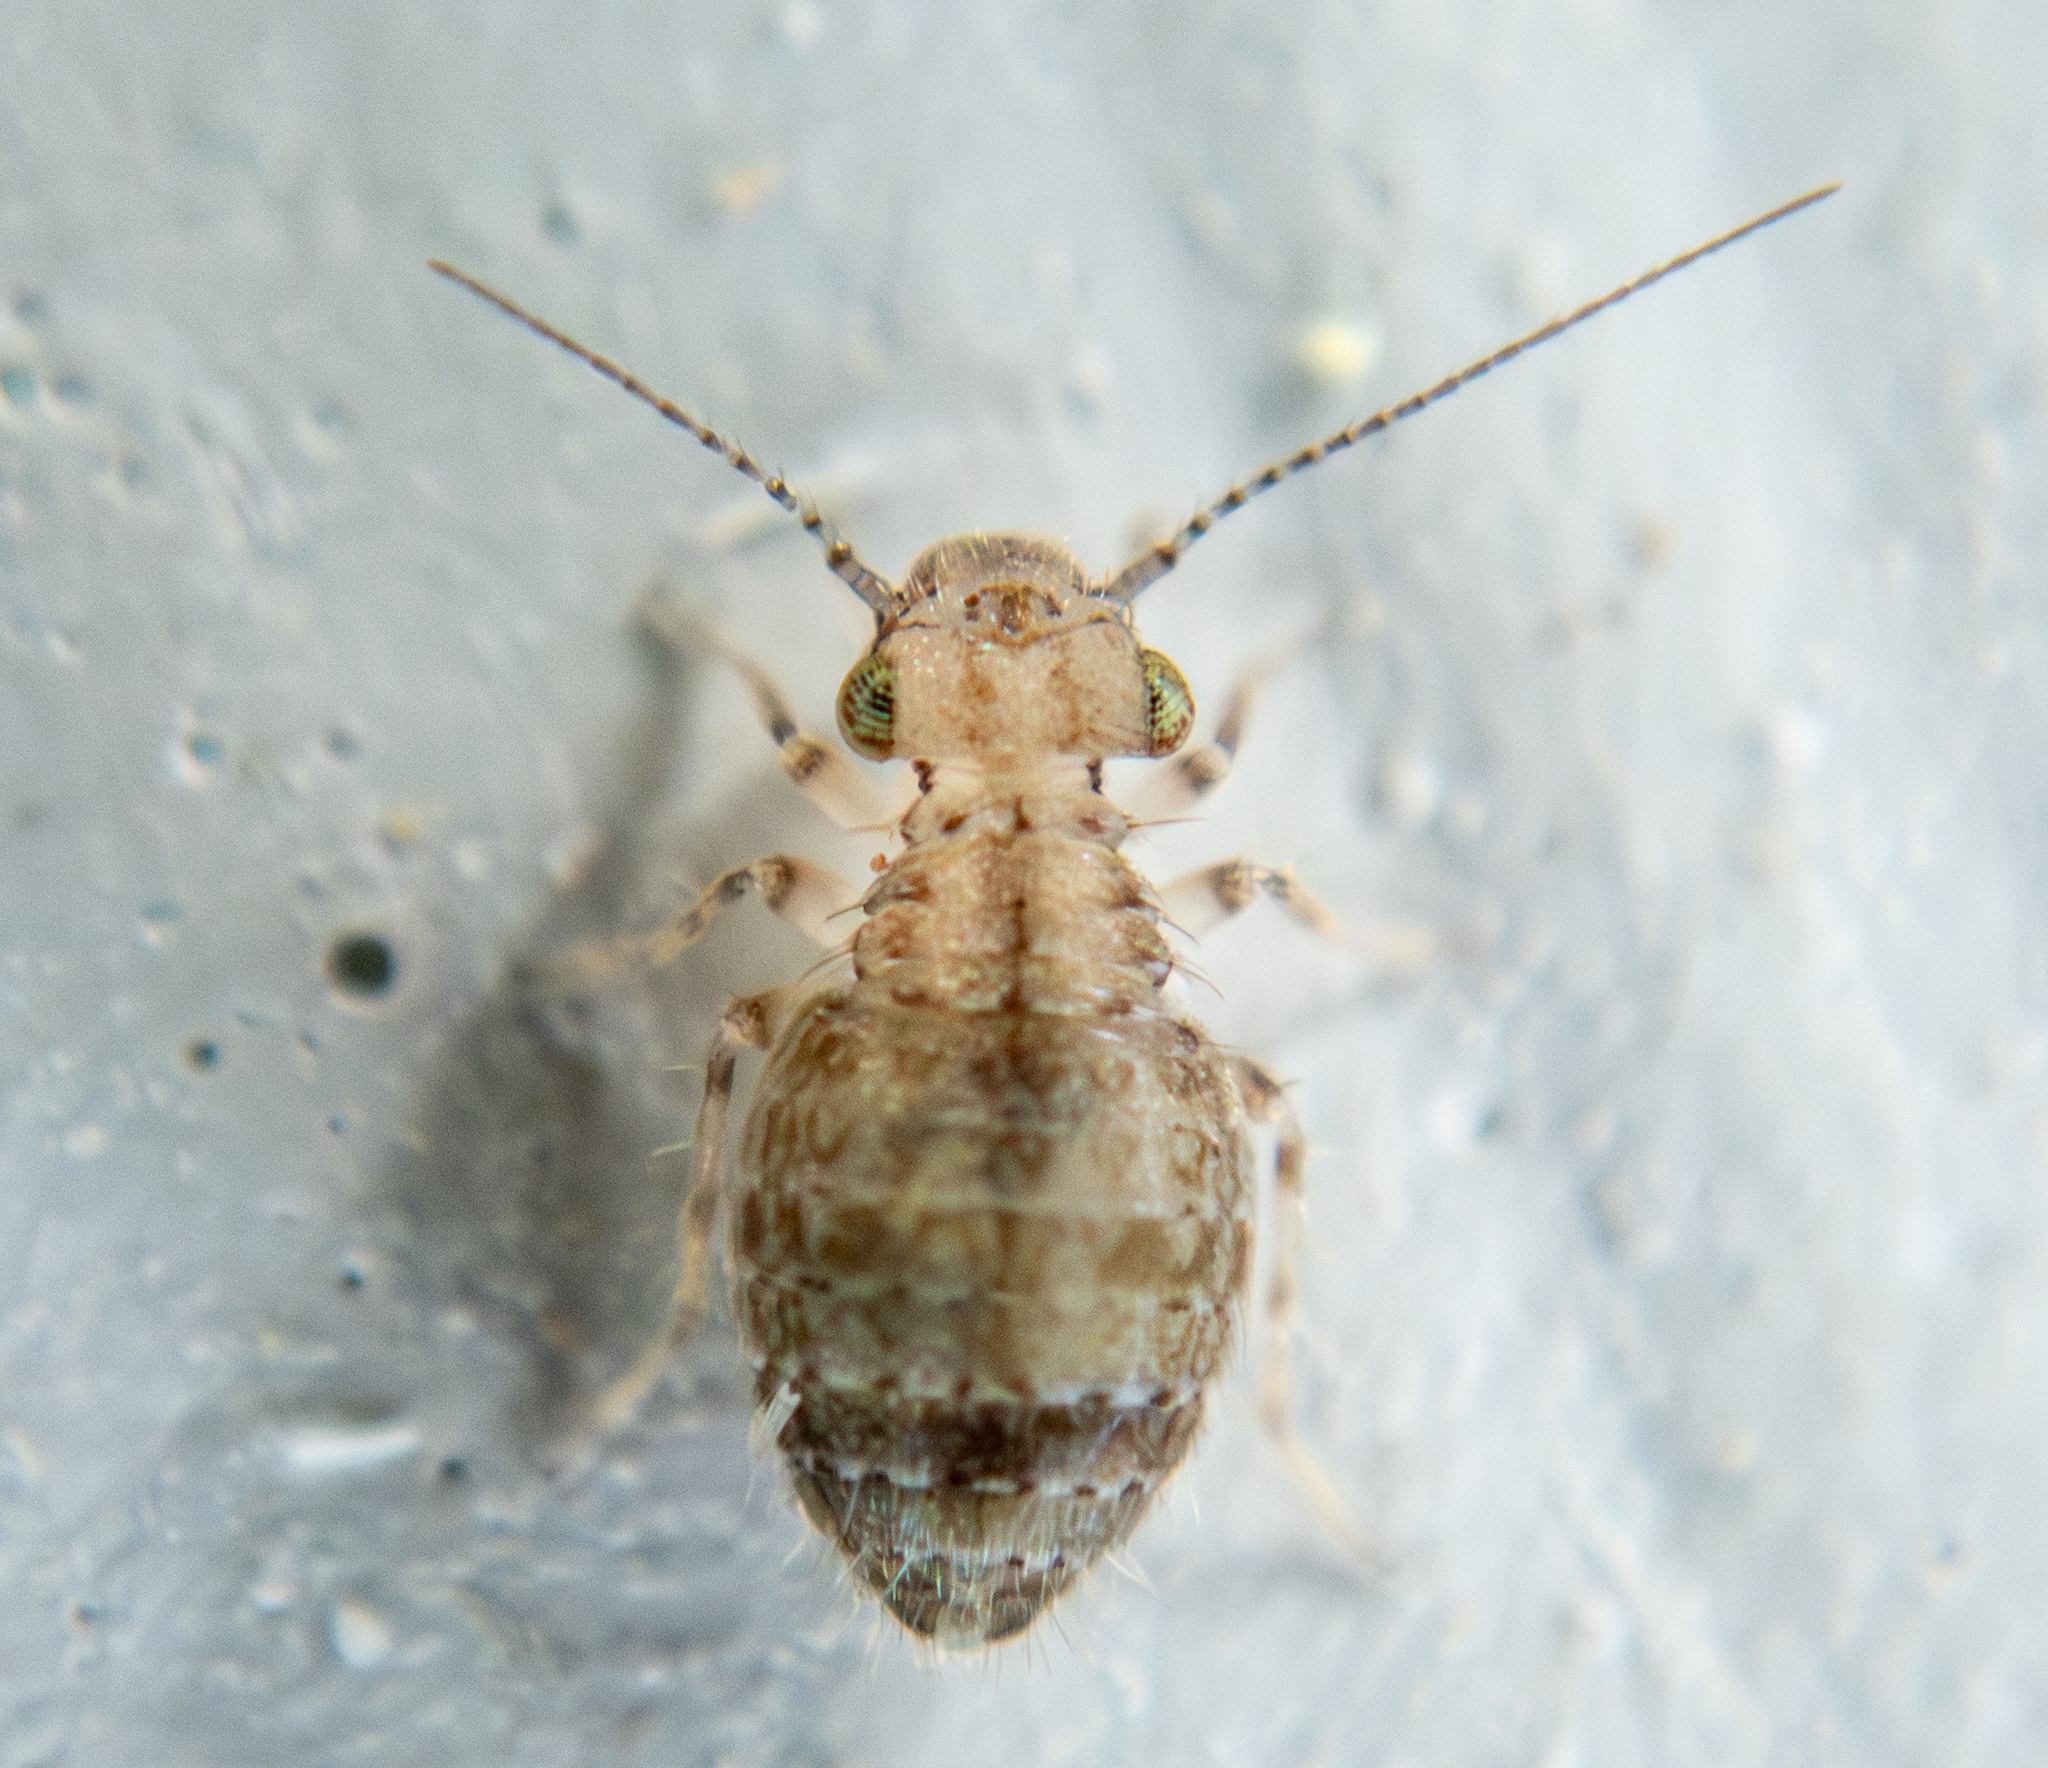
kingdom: Animalia
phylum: Arthropoda
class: Insecta
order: Psocodea
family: Trogiidae
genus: Cerobasis
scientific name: Cerobasis guestfalica
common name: Book lice
